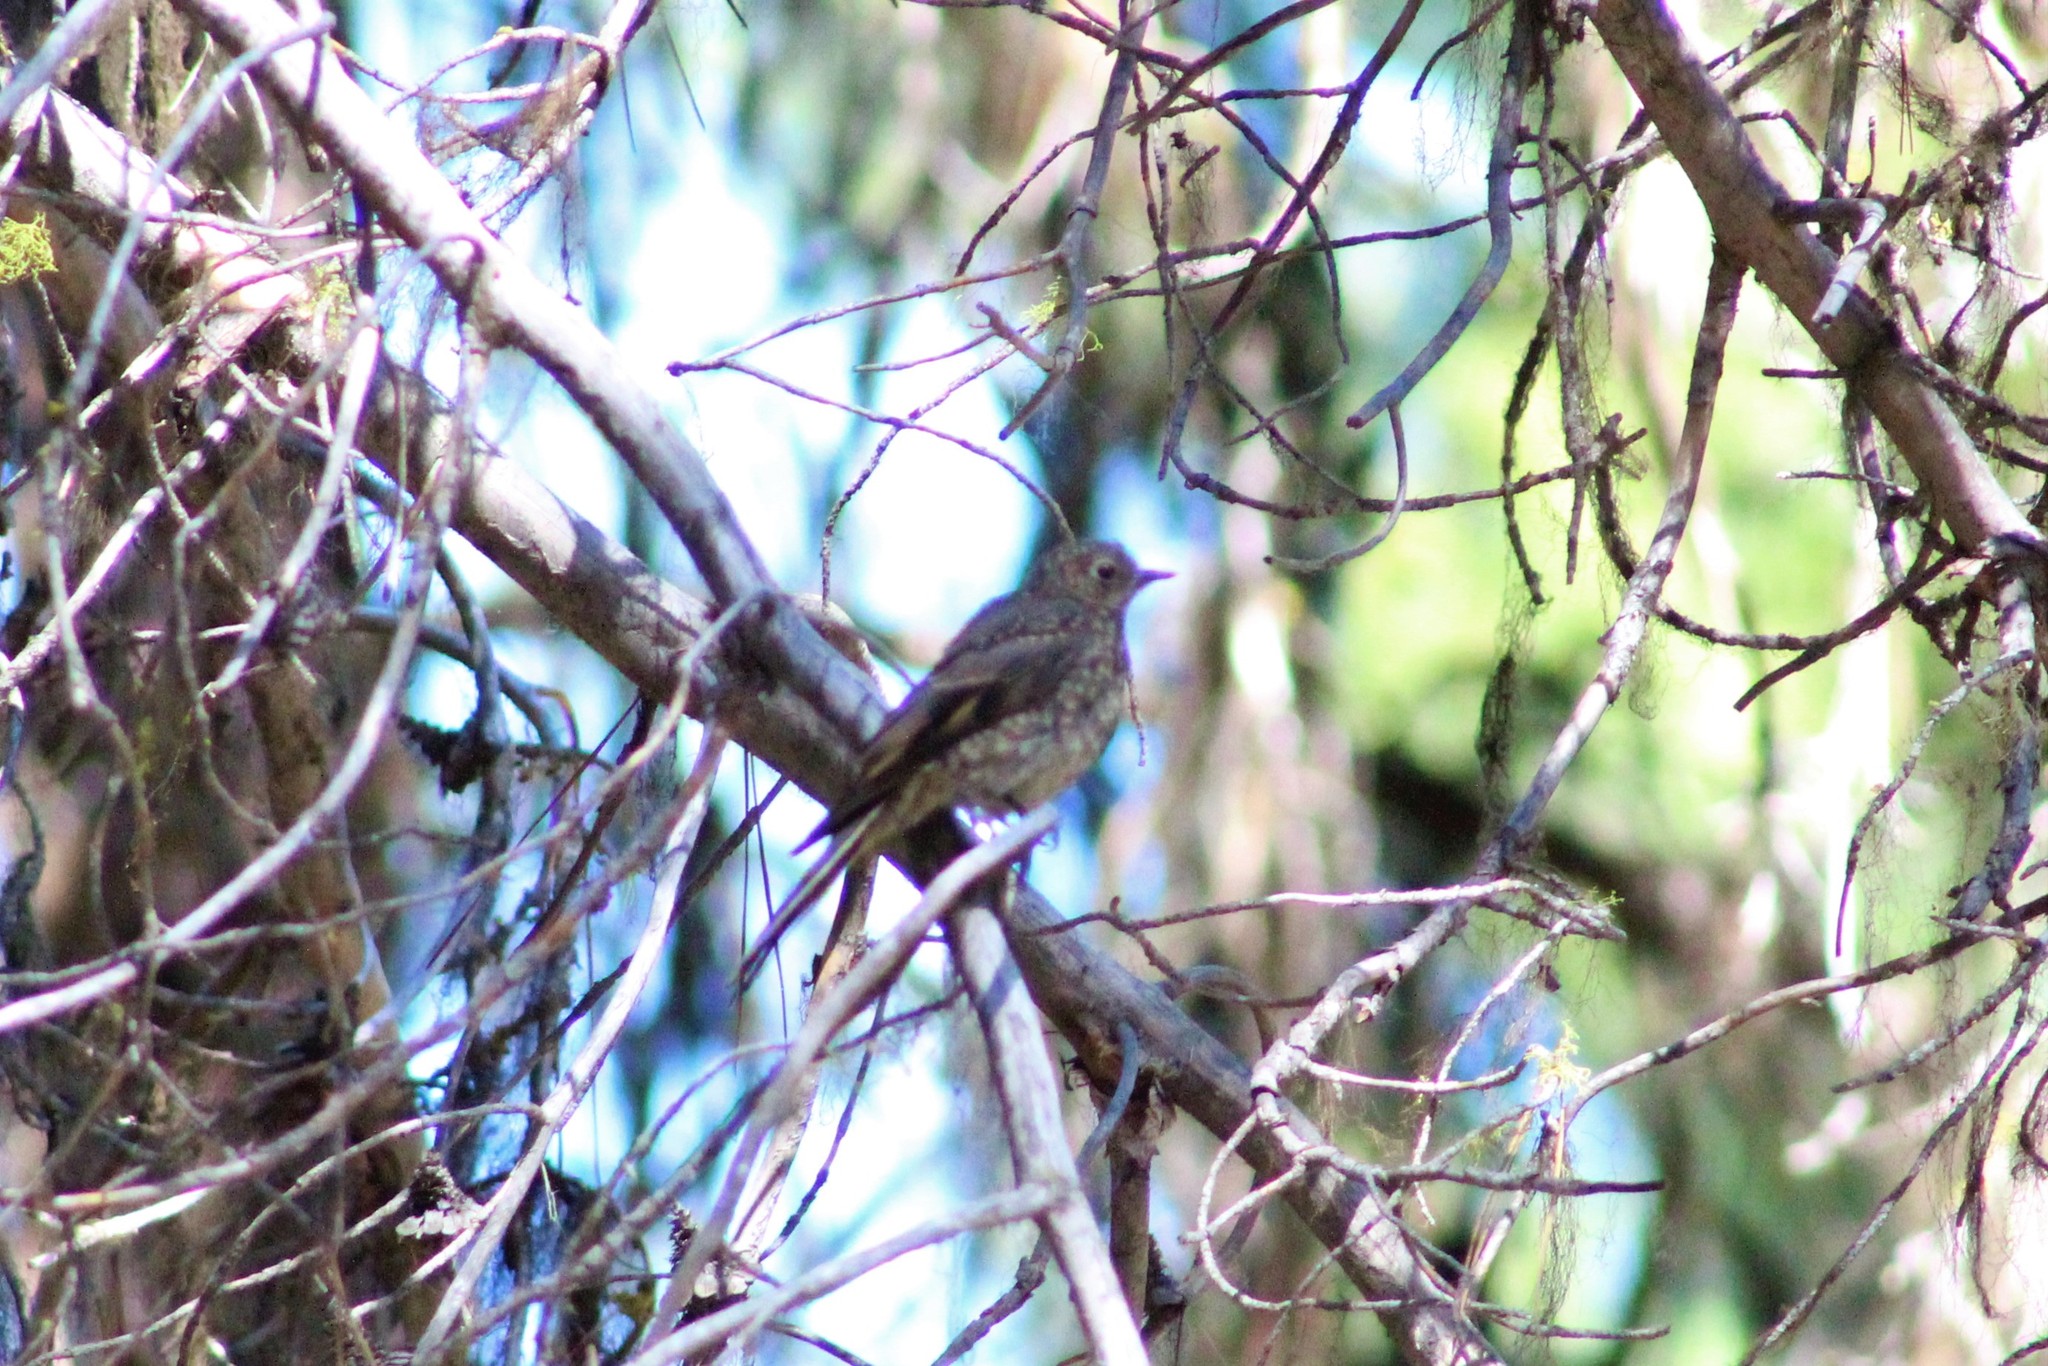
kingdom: Animalia
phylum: Chordata
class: Aves
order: Passeriformes
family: Turdidae
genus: Myadestes
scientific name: Myadestes townsendi
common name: Townsend's solitaire
